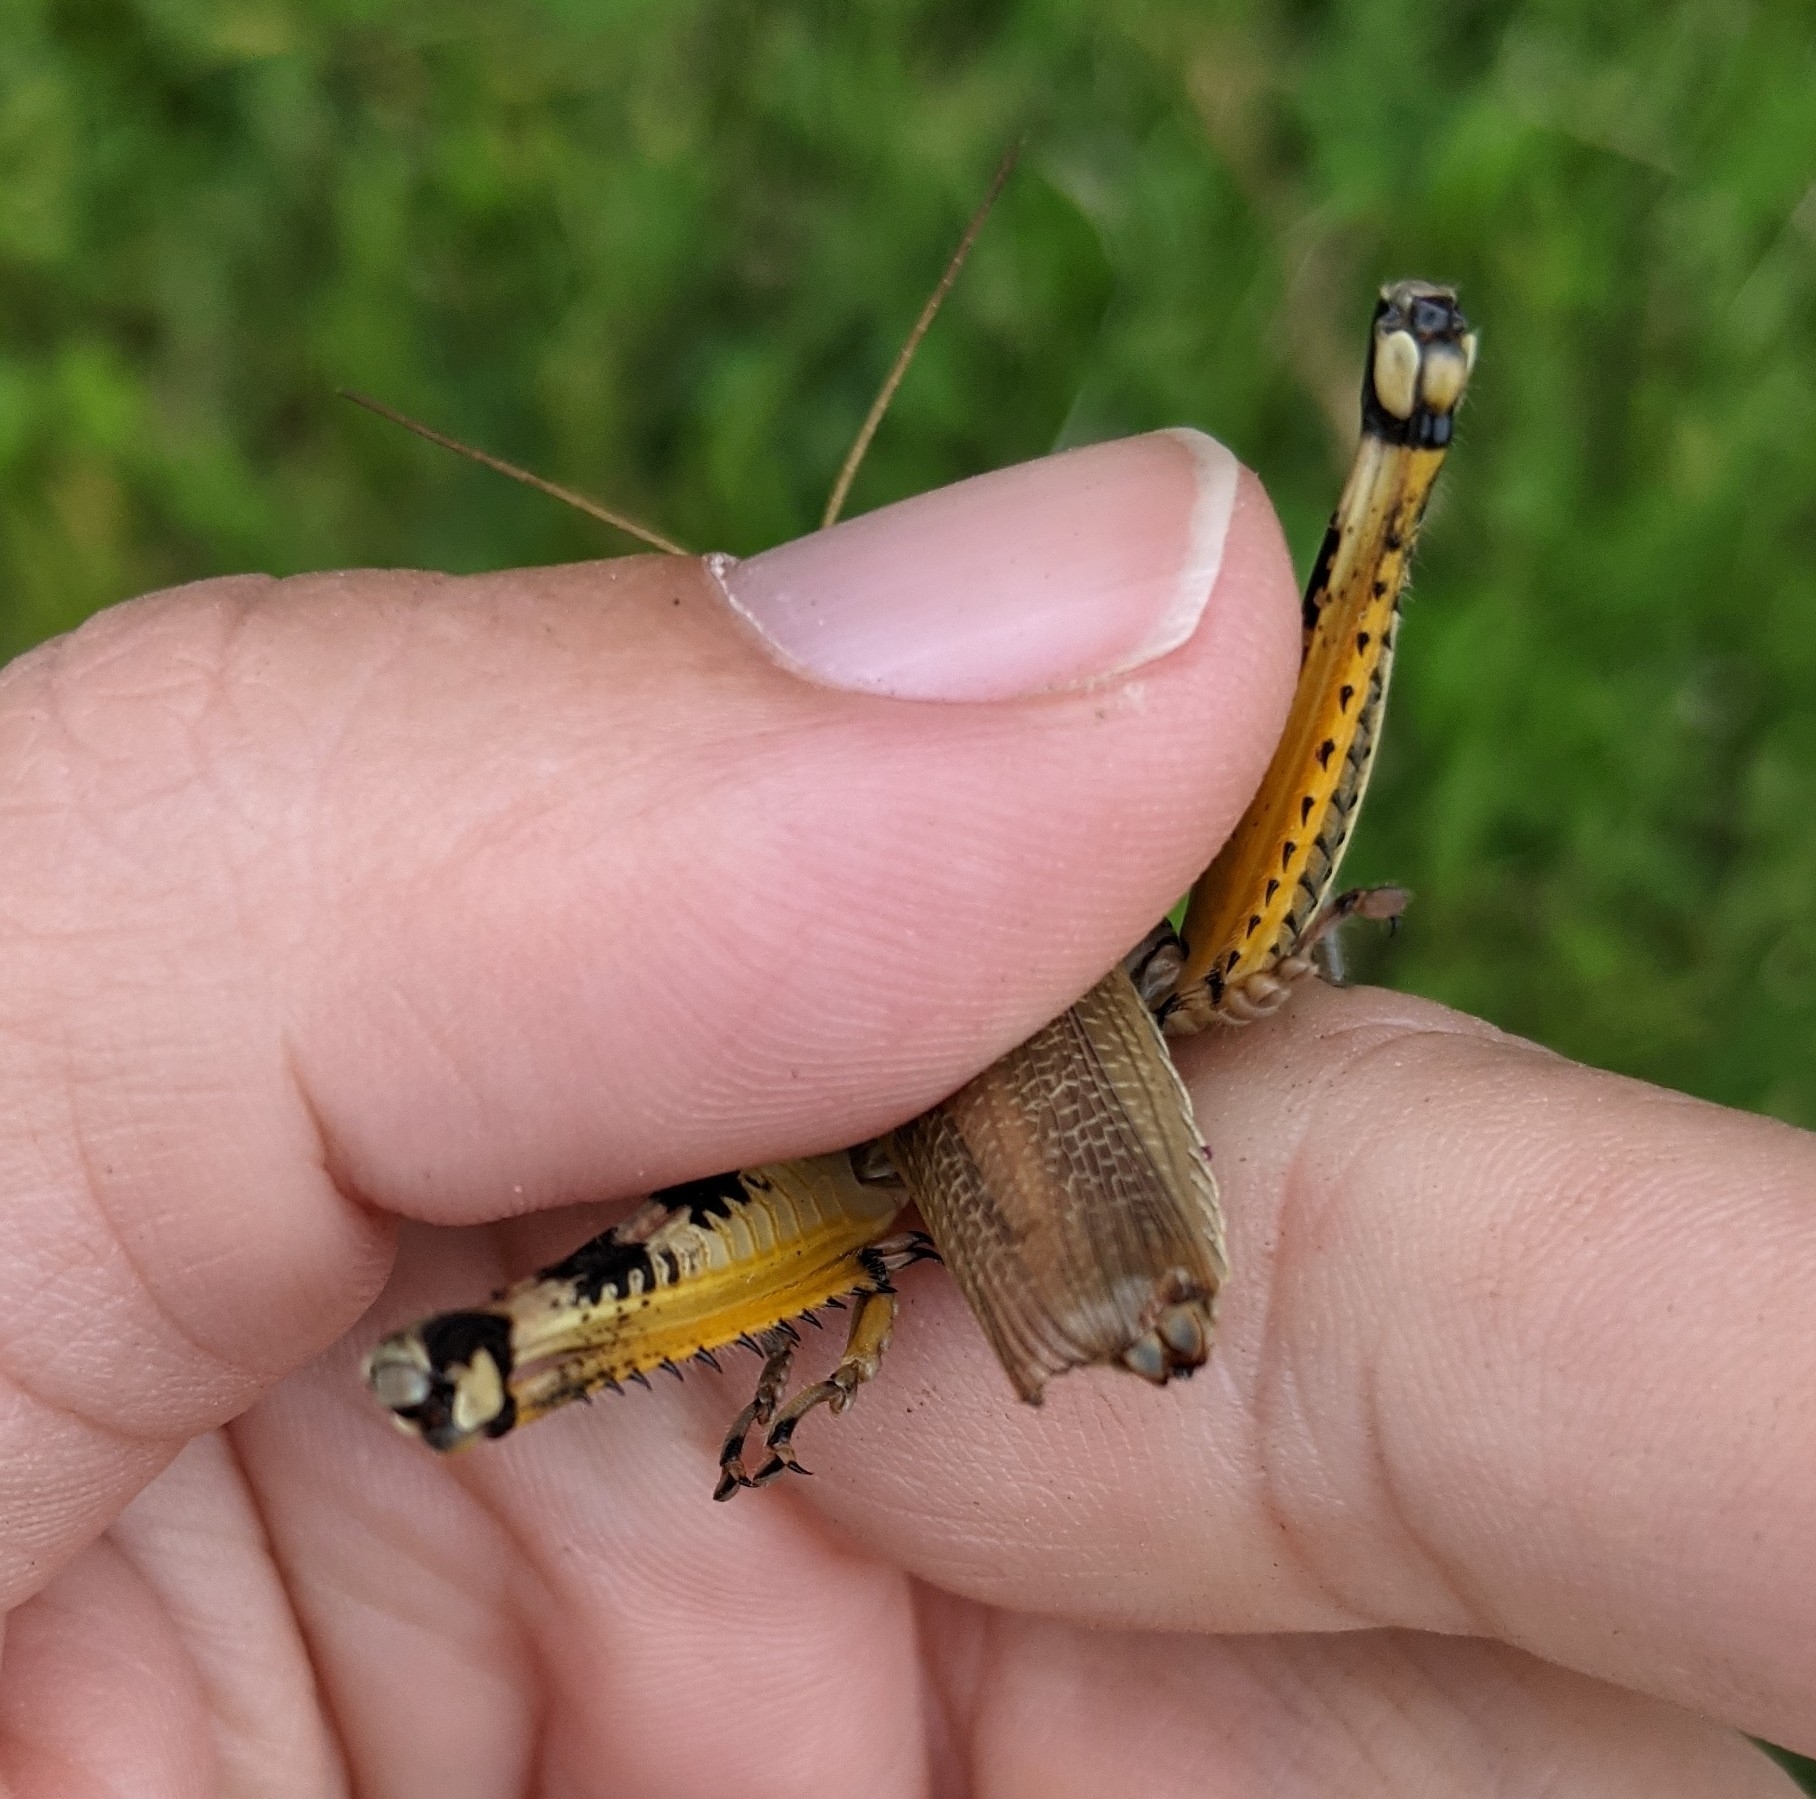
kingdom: Animalia
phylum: Arthropoda
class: Insecta
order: Orthoptera
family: Acrididae
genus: Melanoplus
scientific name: Melanoplus differentialis
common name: Differential grasshopper
